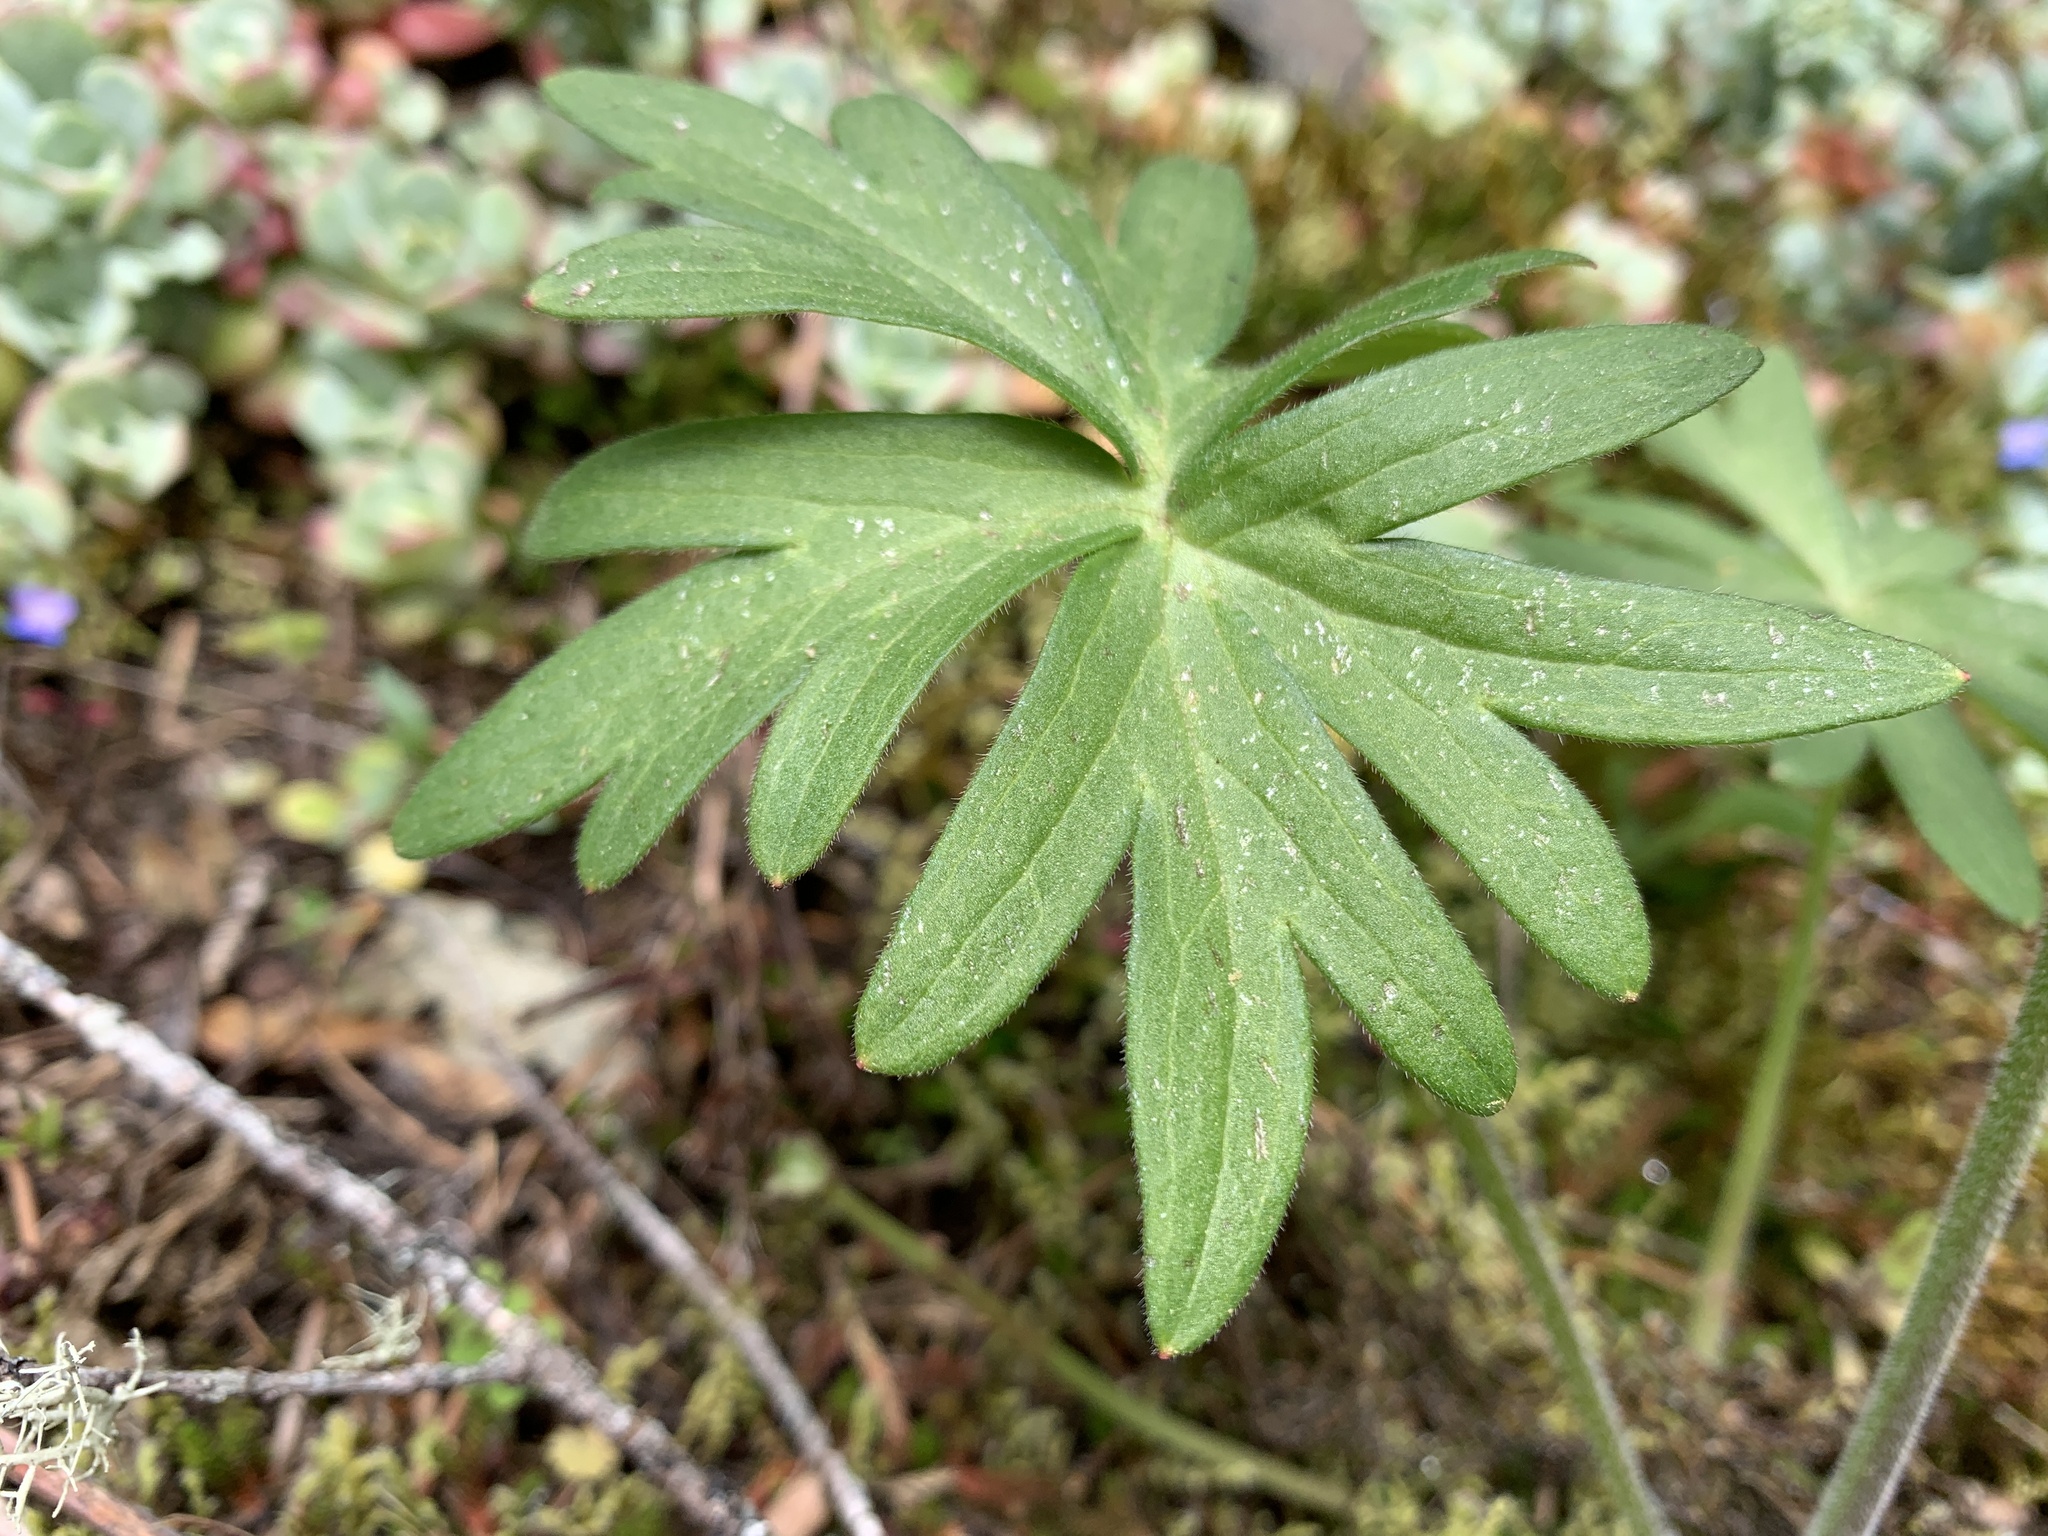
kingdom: Plantae
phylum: Tracheophyta
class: Magnoliopsida
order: Ranunculales
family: Ranunculaceae
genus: Delphinium
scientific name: Delphinium menziesii
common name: Menzies's larkspur
